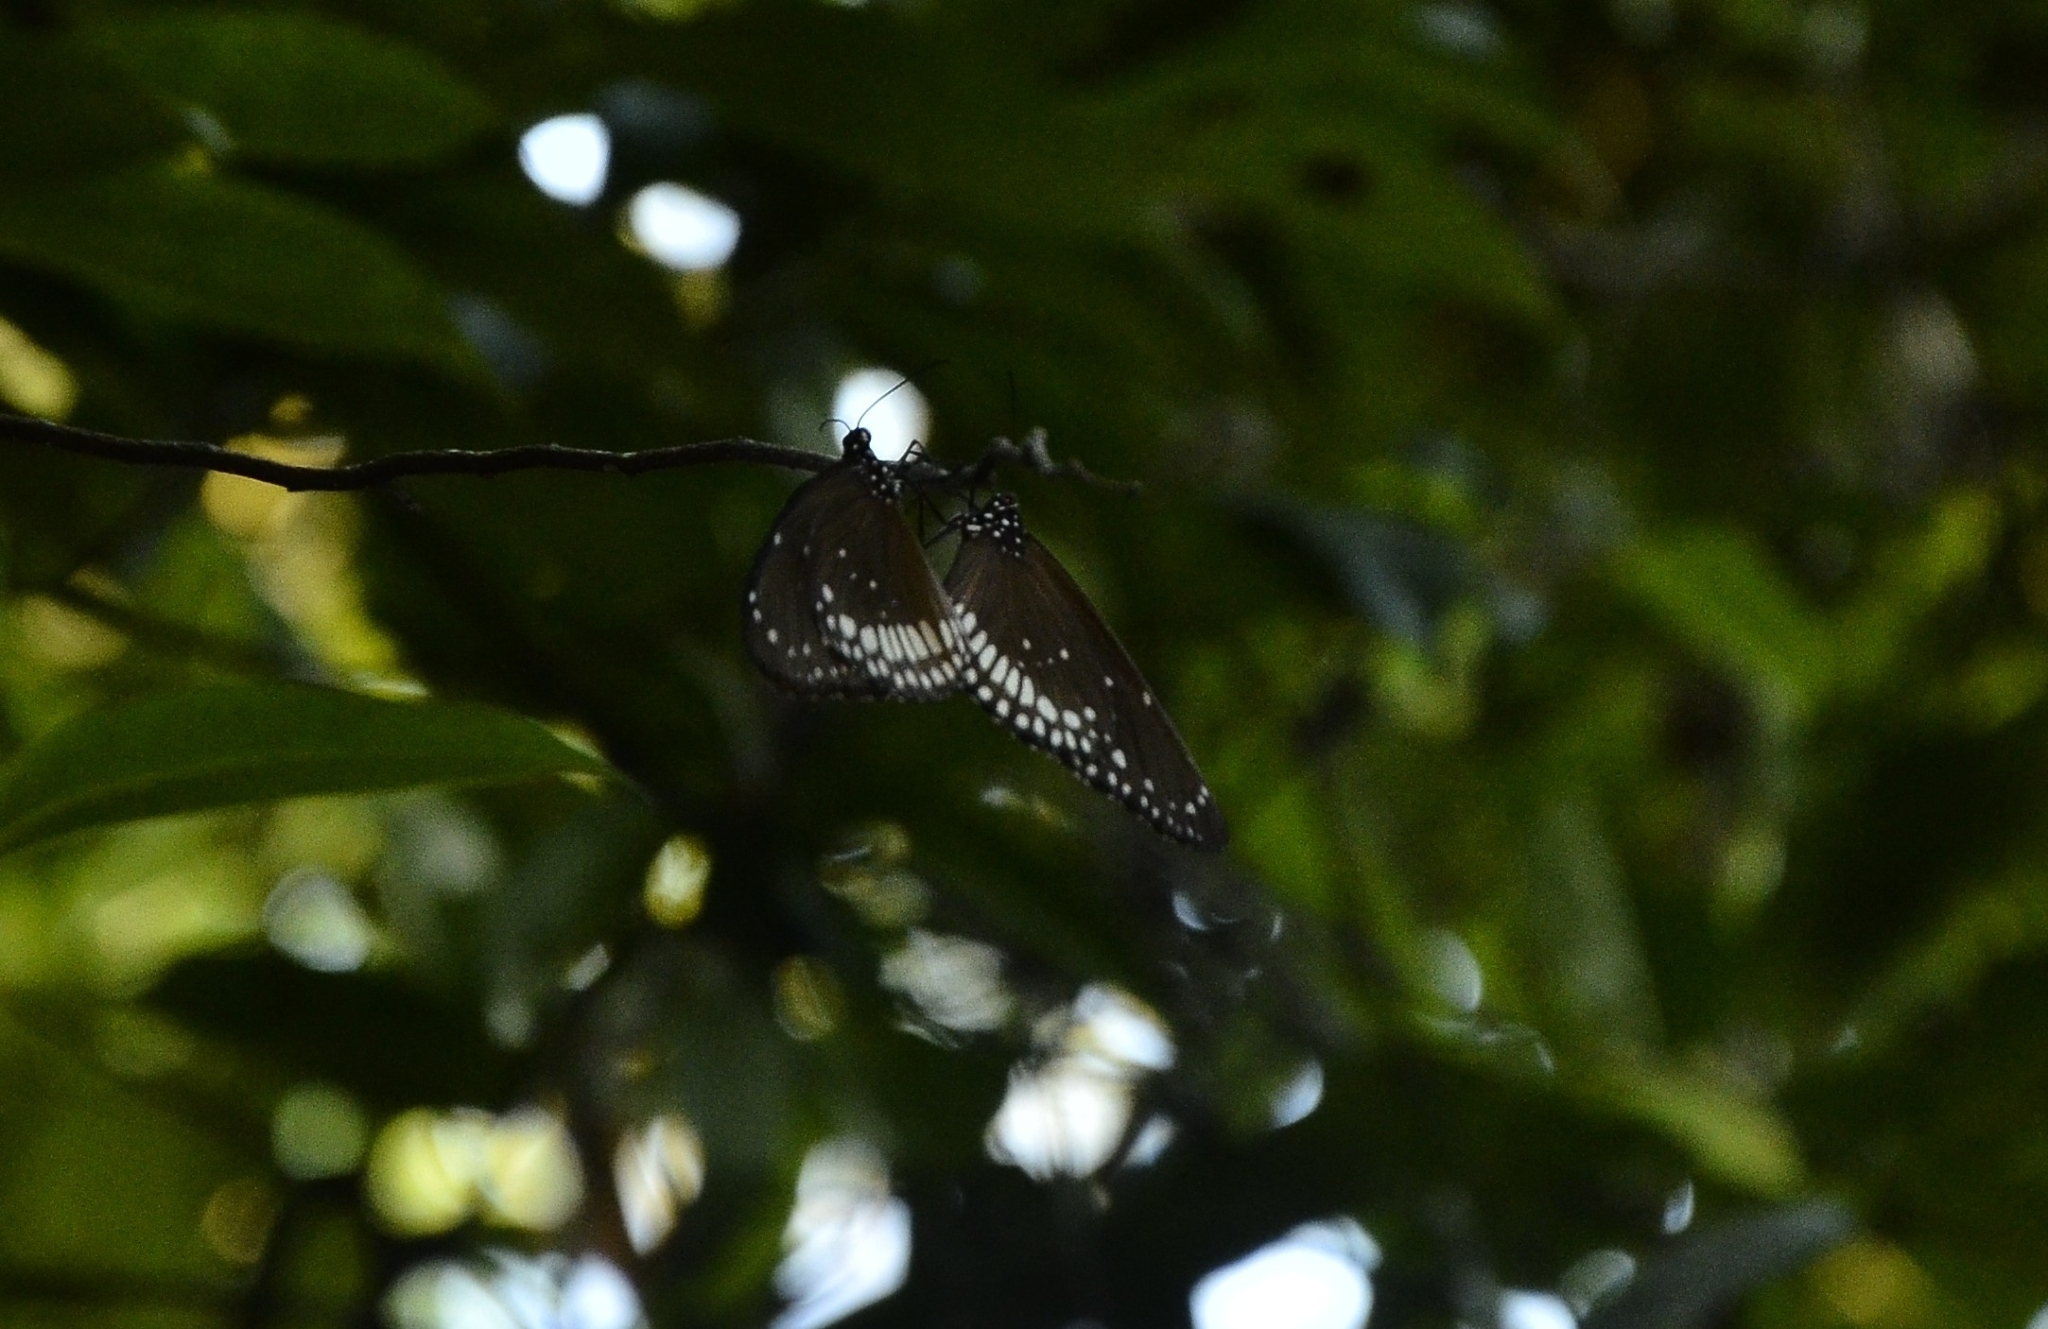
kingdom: Animalia
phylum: Arthropoda
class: Insecta
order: Lepidoptera
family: Nymphalidae
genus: Euploea
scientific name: Euploea core
